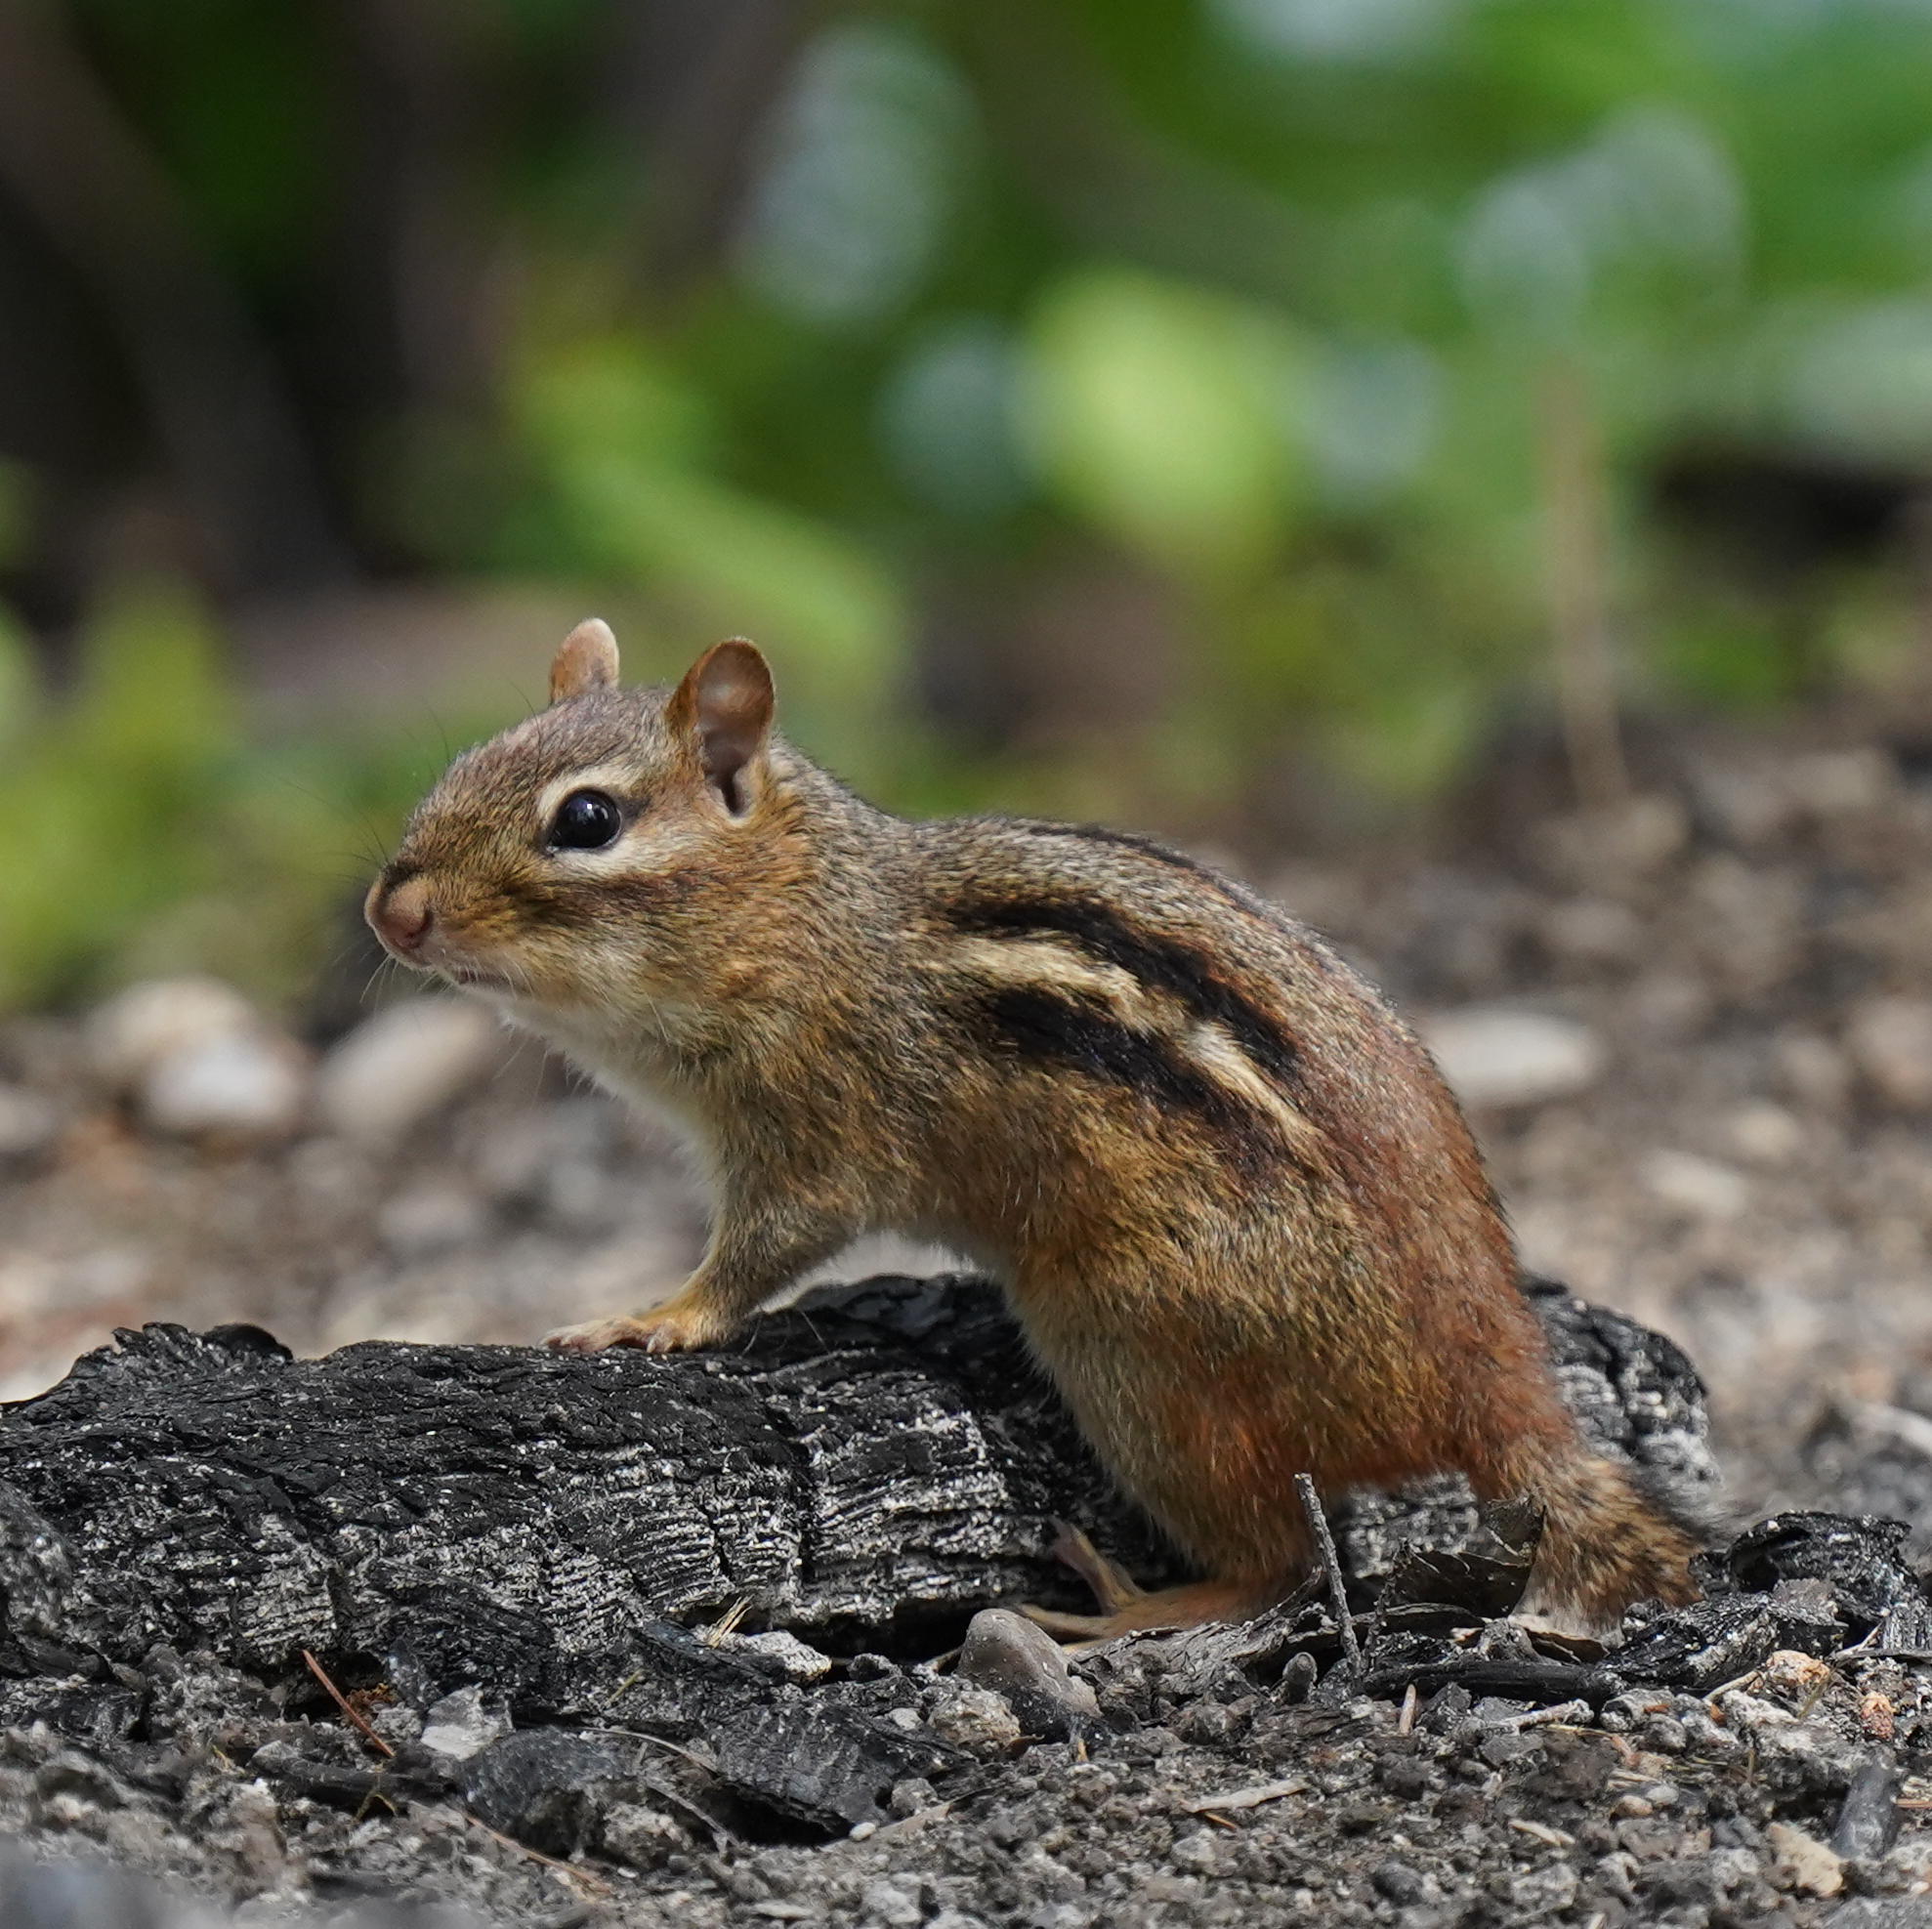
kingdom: Animalia
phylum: Chordata
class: Mammalia
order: Rodentia
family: Sciuridae
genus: Tamias
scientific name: Tamias striatus
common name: Eastern chipmunk
